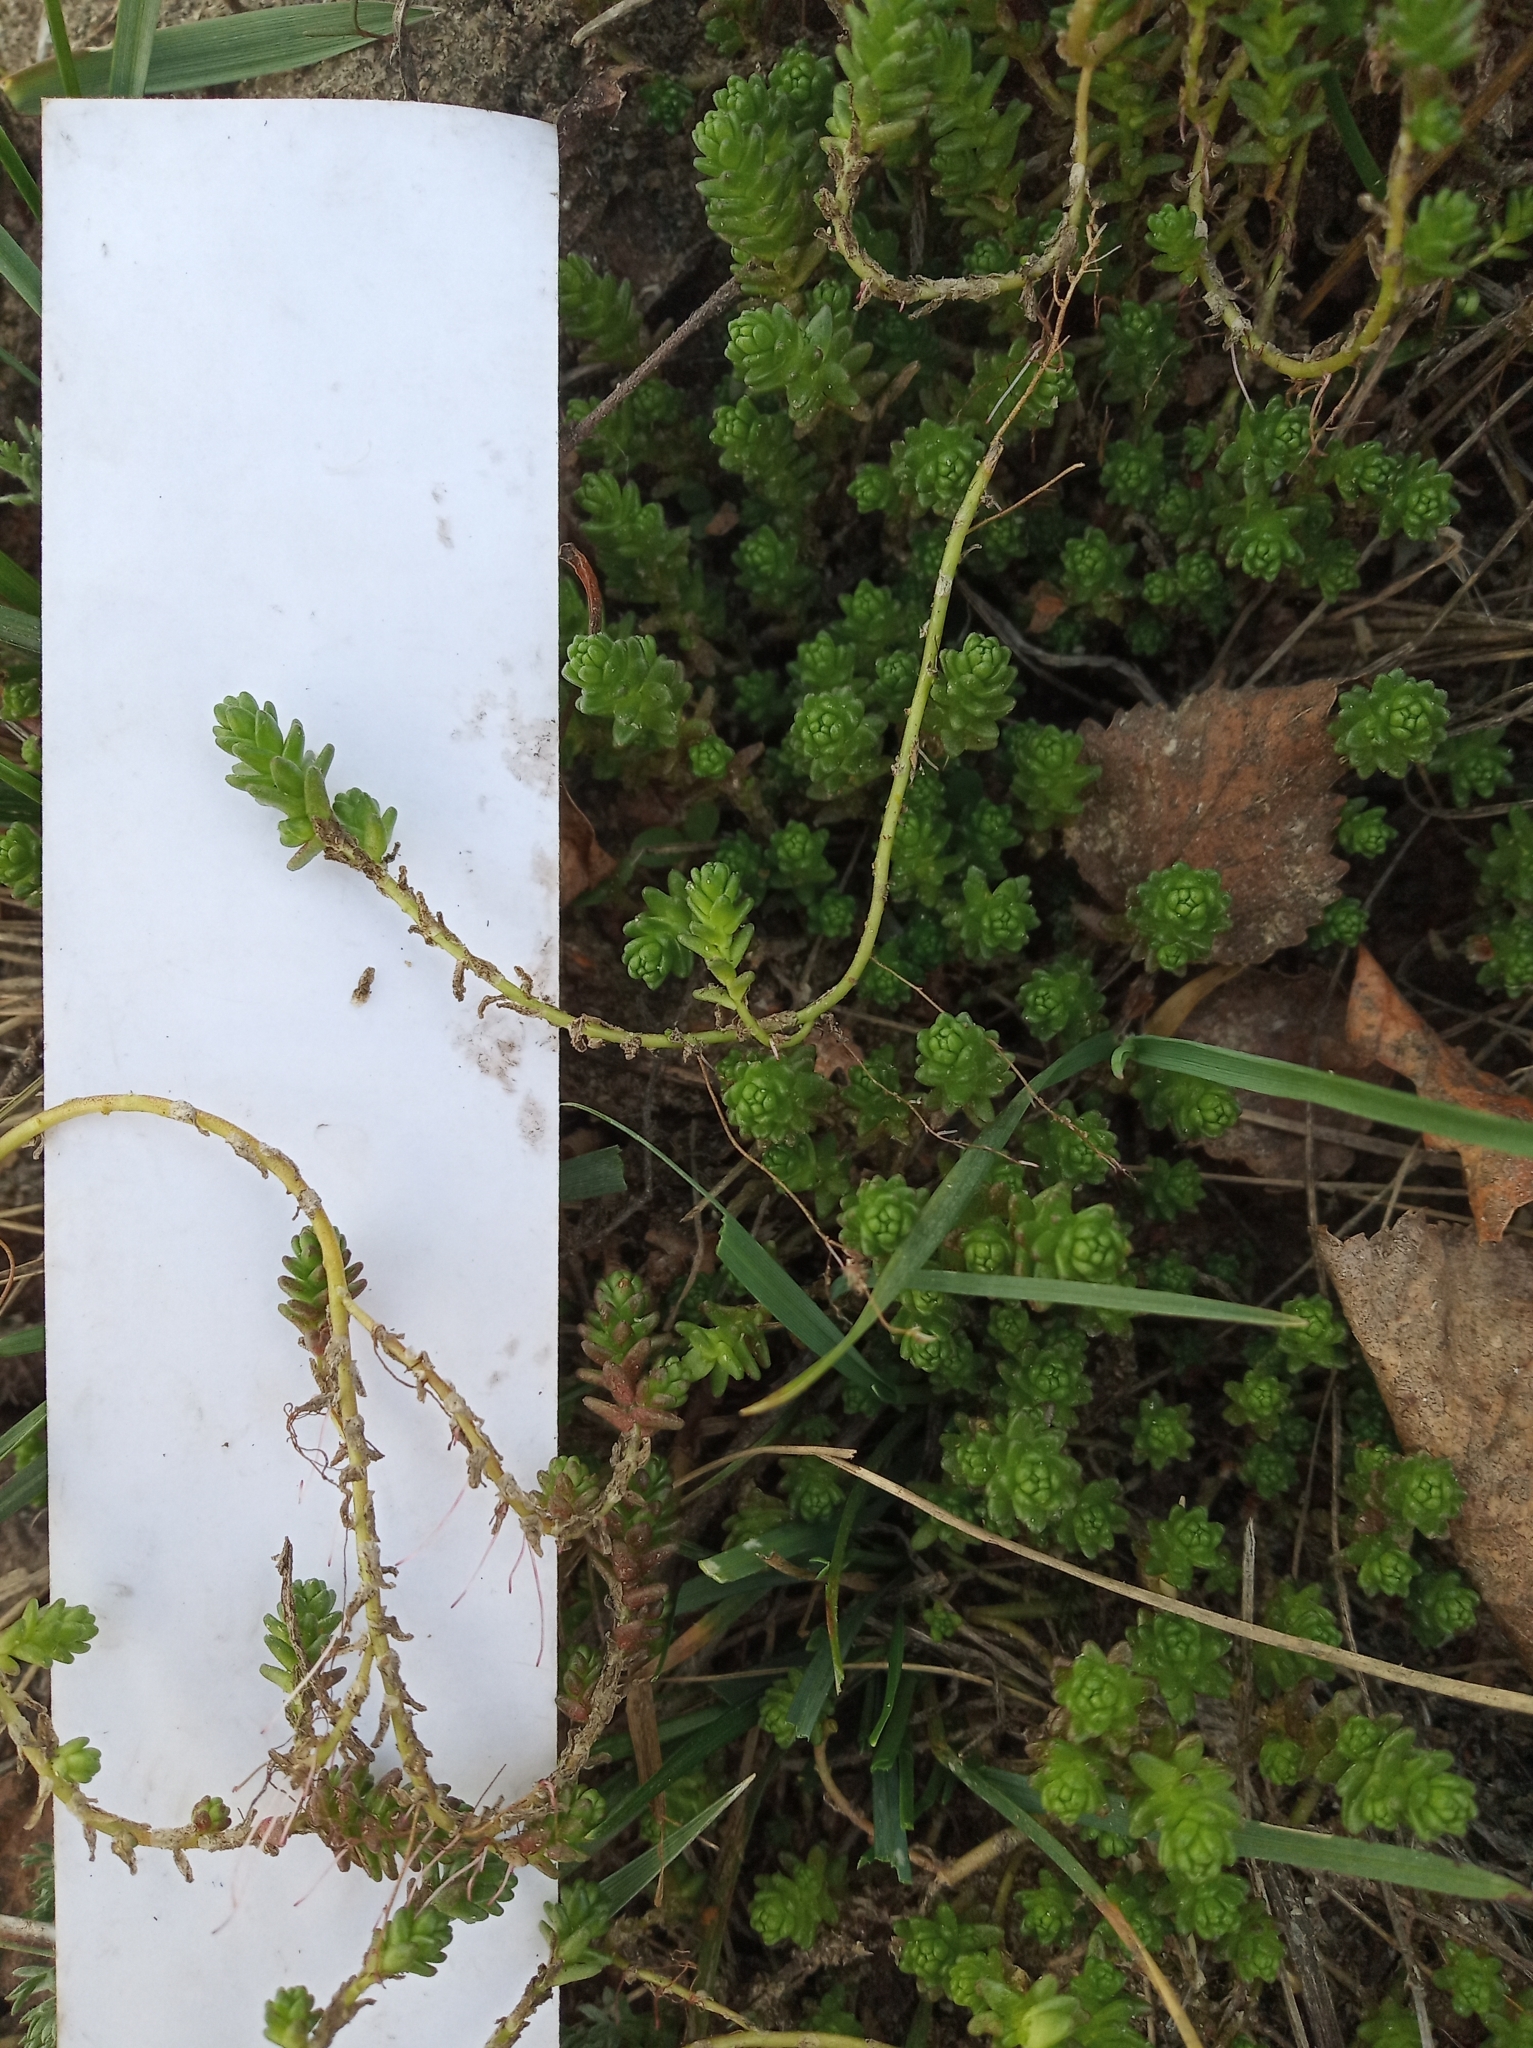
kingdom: Plantae
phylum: Tracheophyta
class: Magnoliopsida
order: Saxifragales
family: Crassulaceae
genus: Sedum
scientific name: Sedum acre
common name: Biting stonecrop
